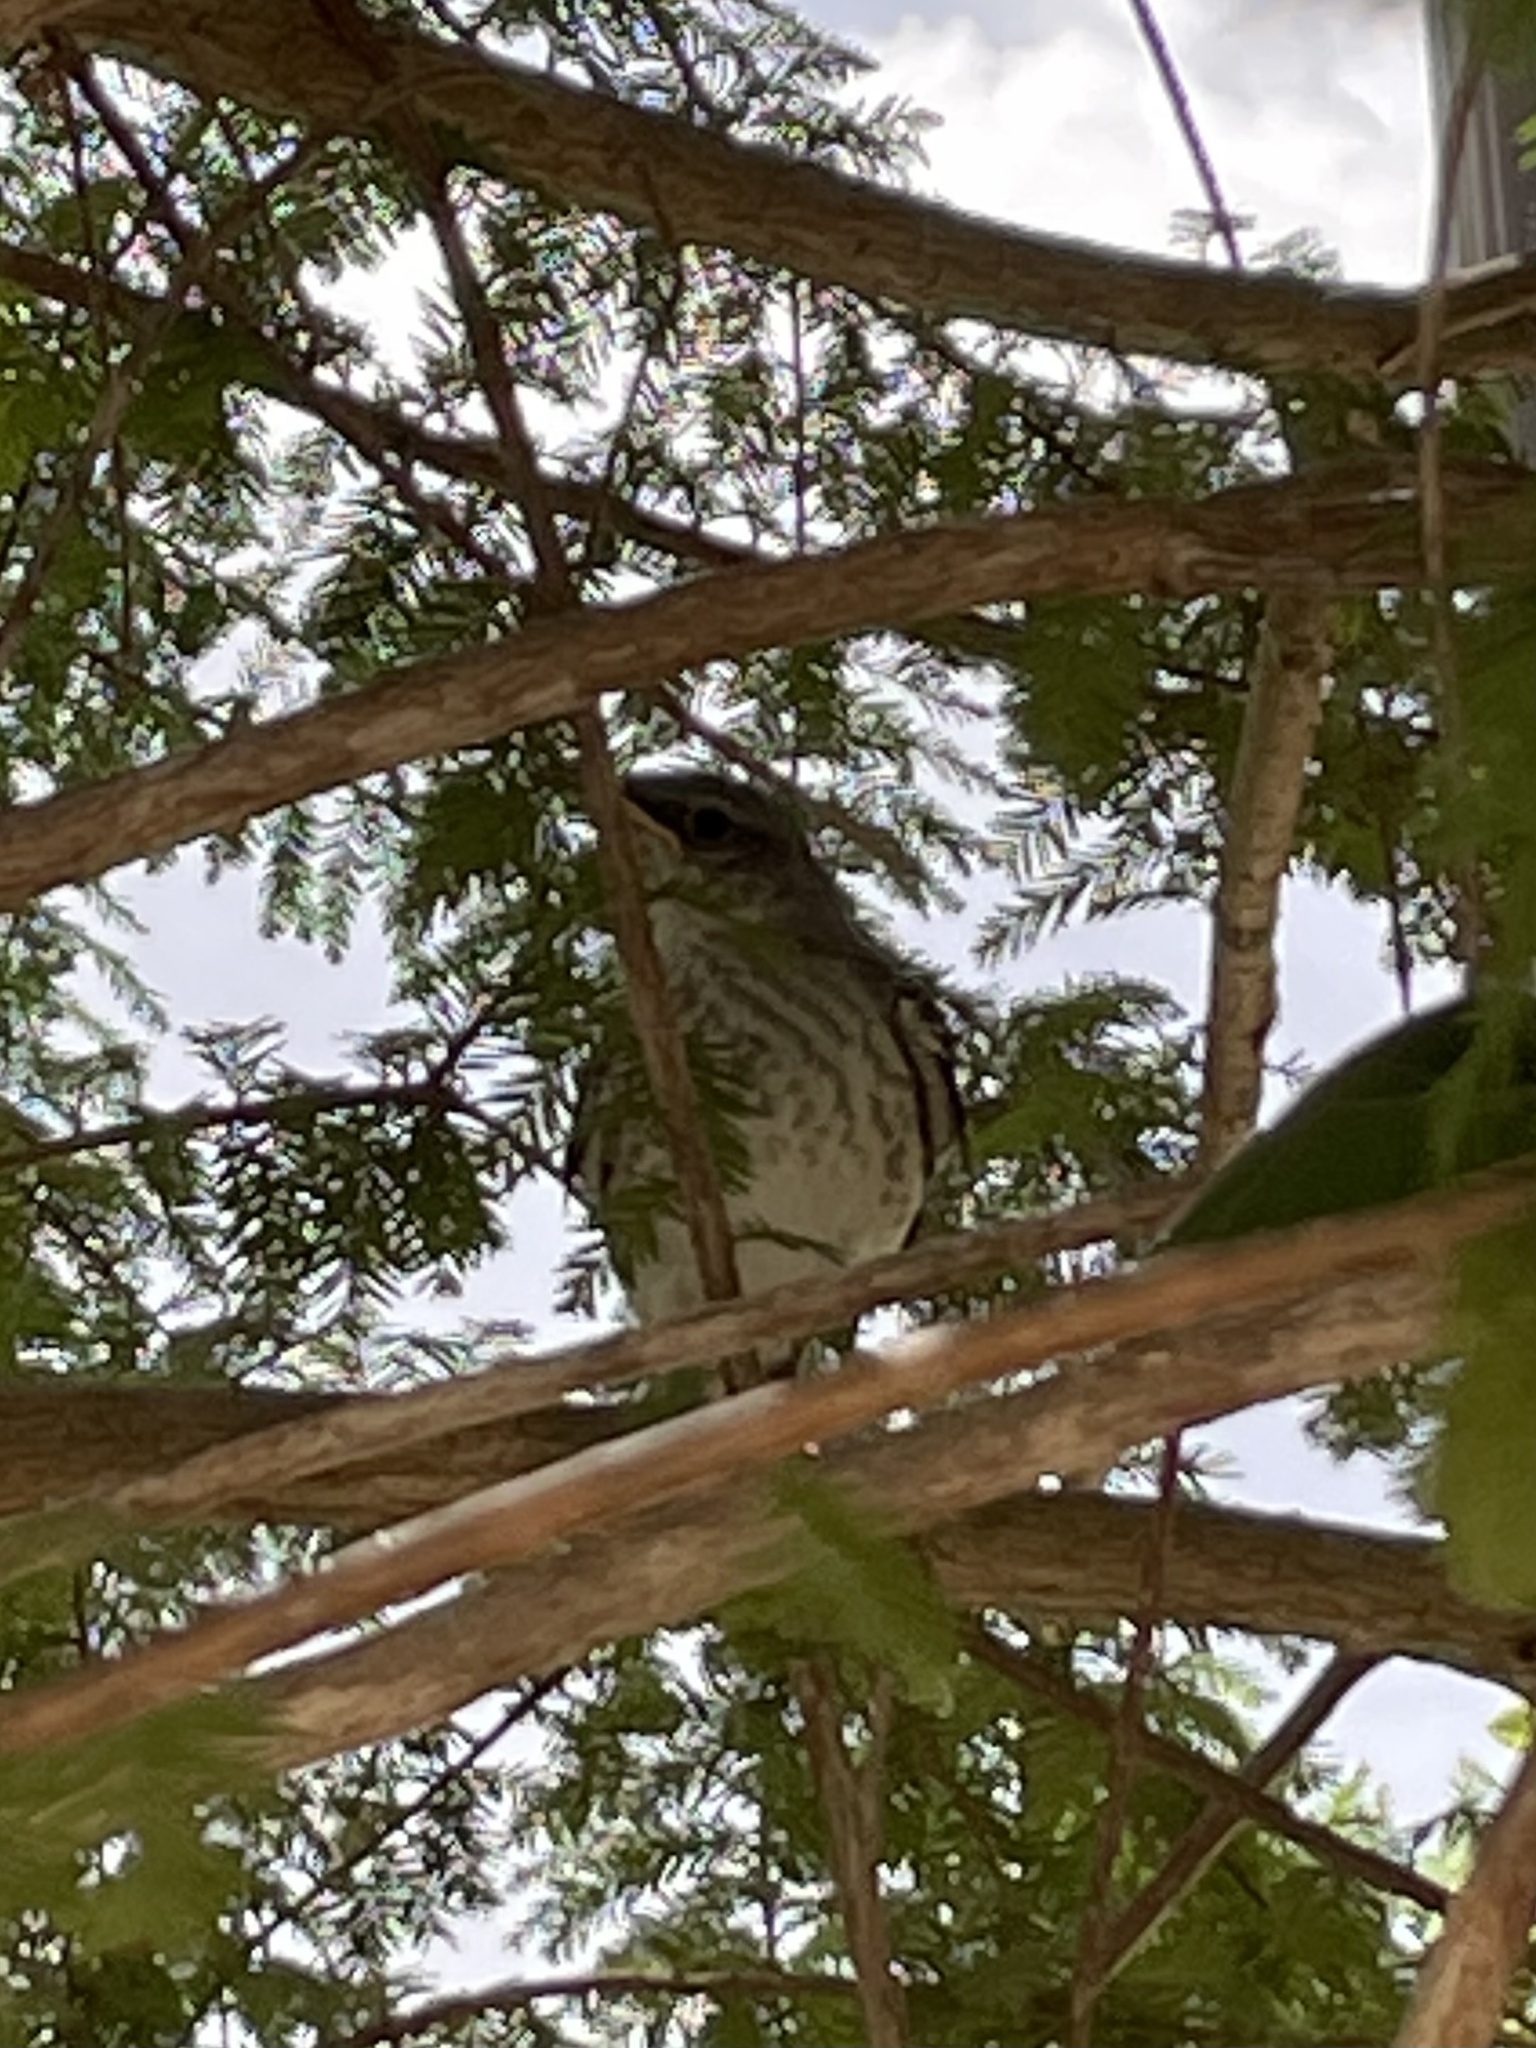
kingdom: Animalia
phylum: Chordata
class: Aves
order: Passeriformes
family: Mimidae
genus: Mimus
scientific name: Mimus polyglottos
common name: Northern mockingbird
